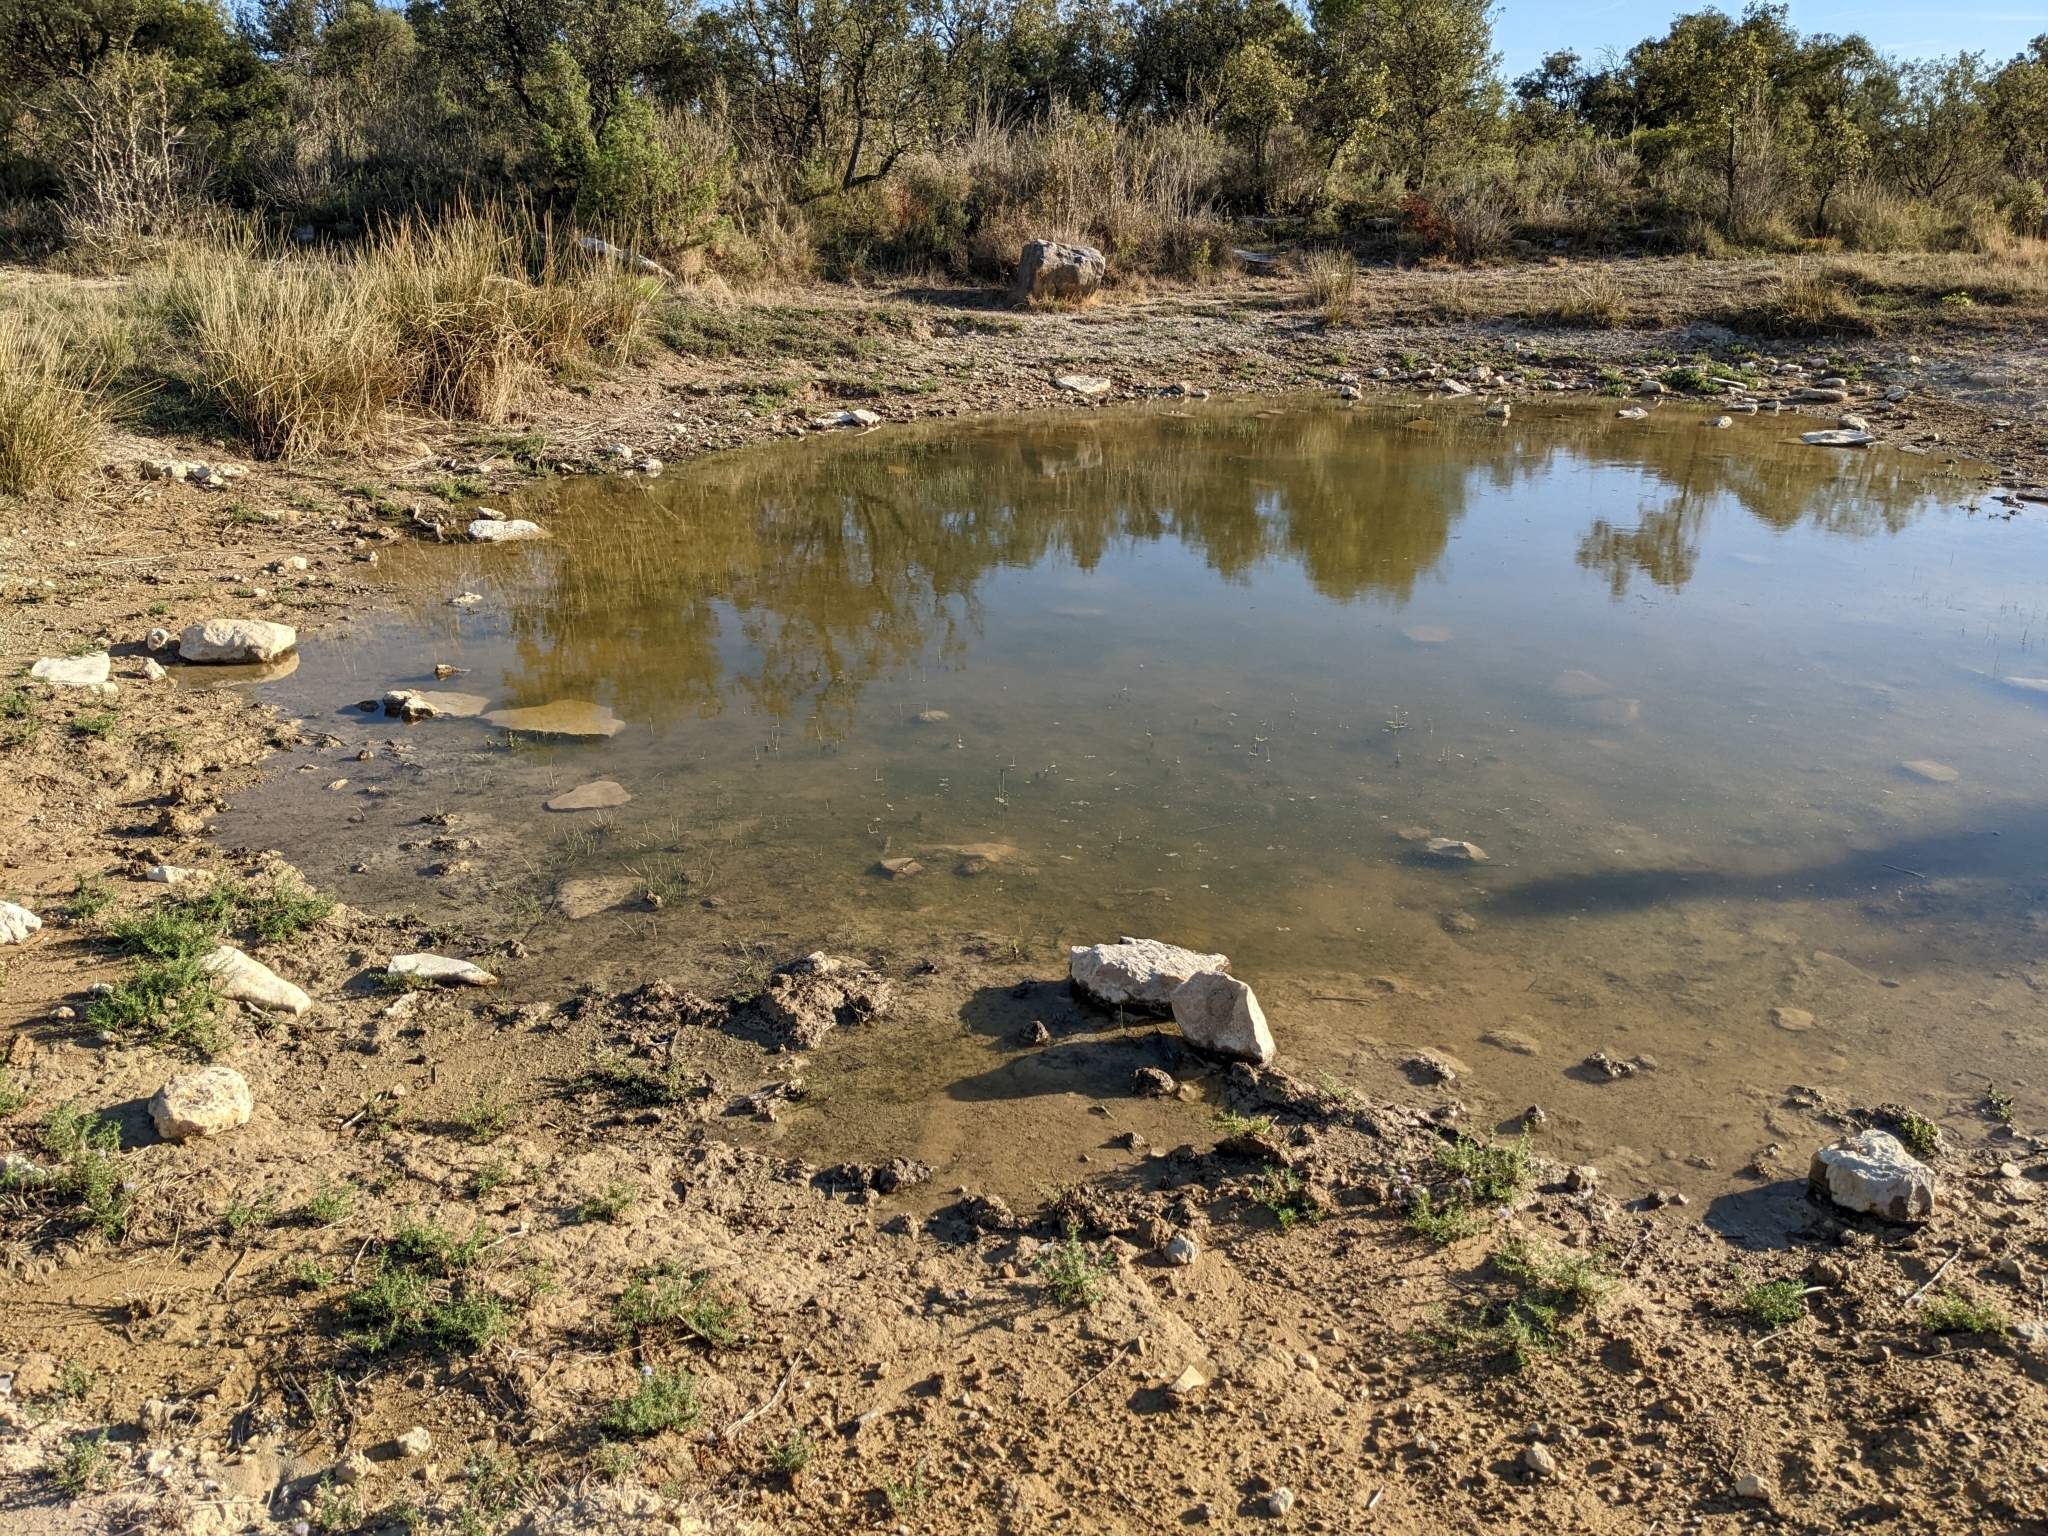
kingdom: Plantae
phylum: Tracheophyta
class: Magnoliopsida
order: Lamiales
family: Lamiaceae
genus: Mentha
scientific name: Mentha cervina
